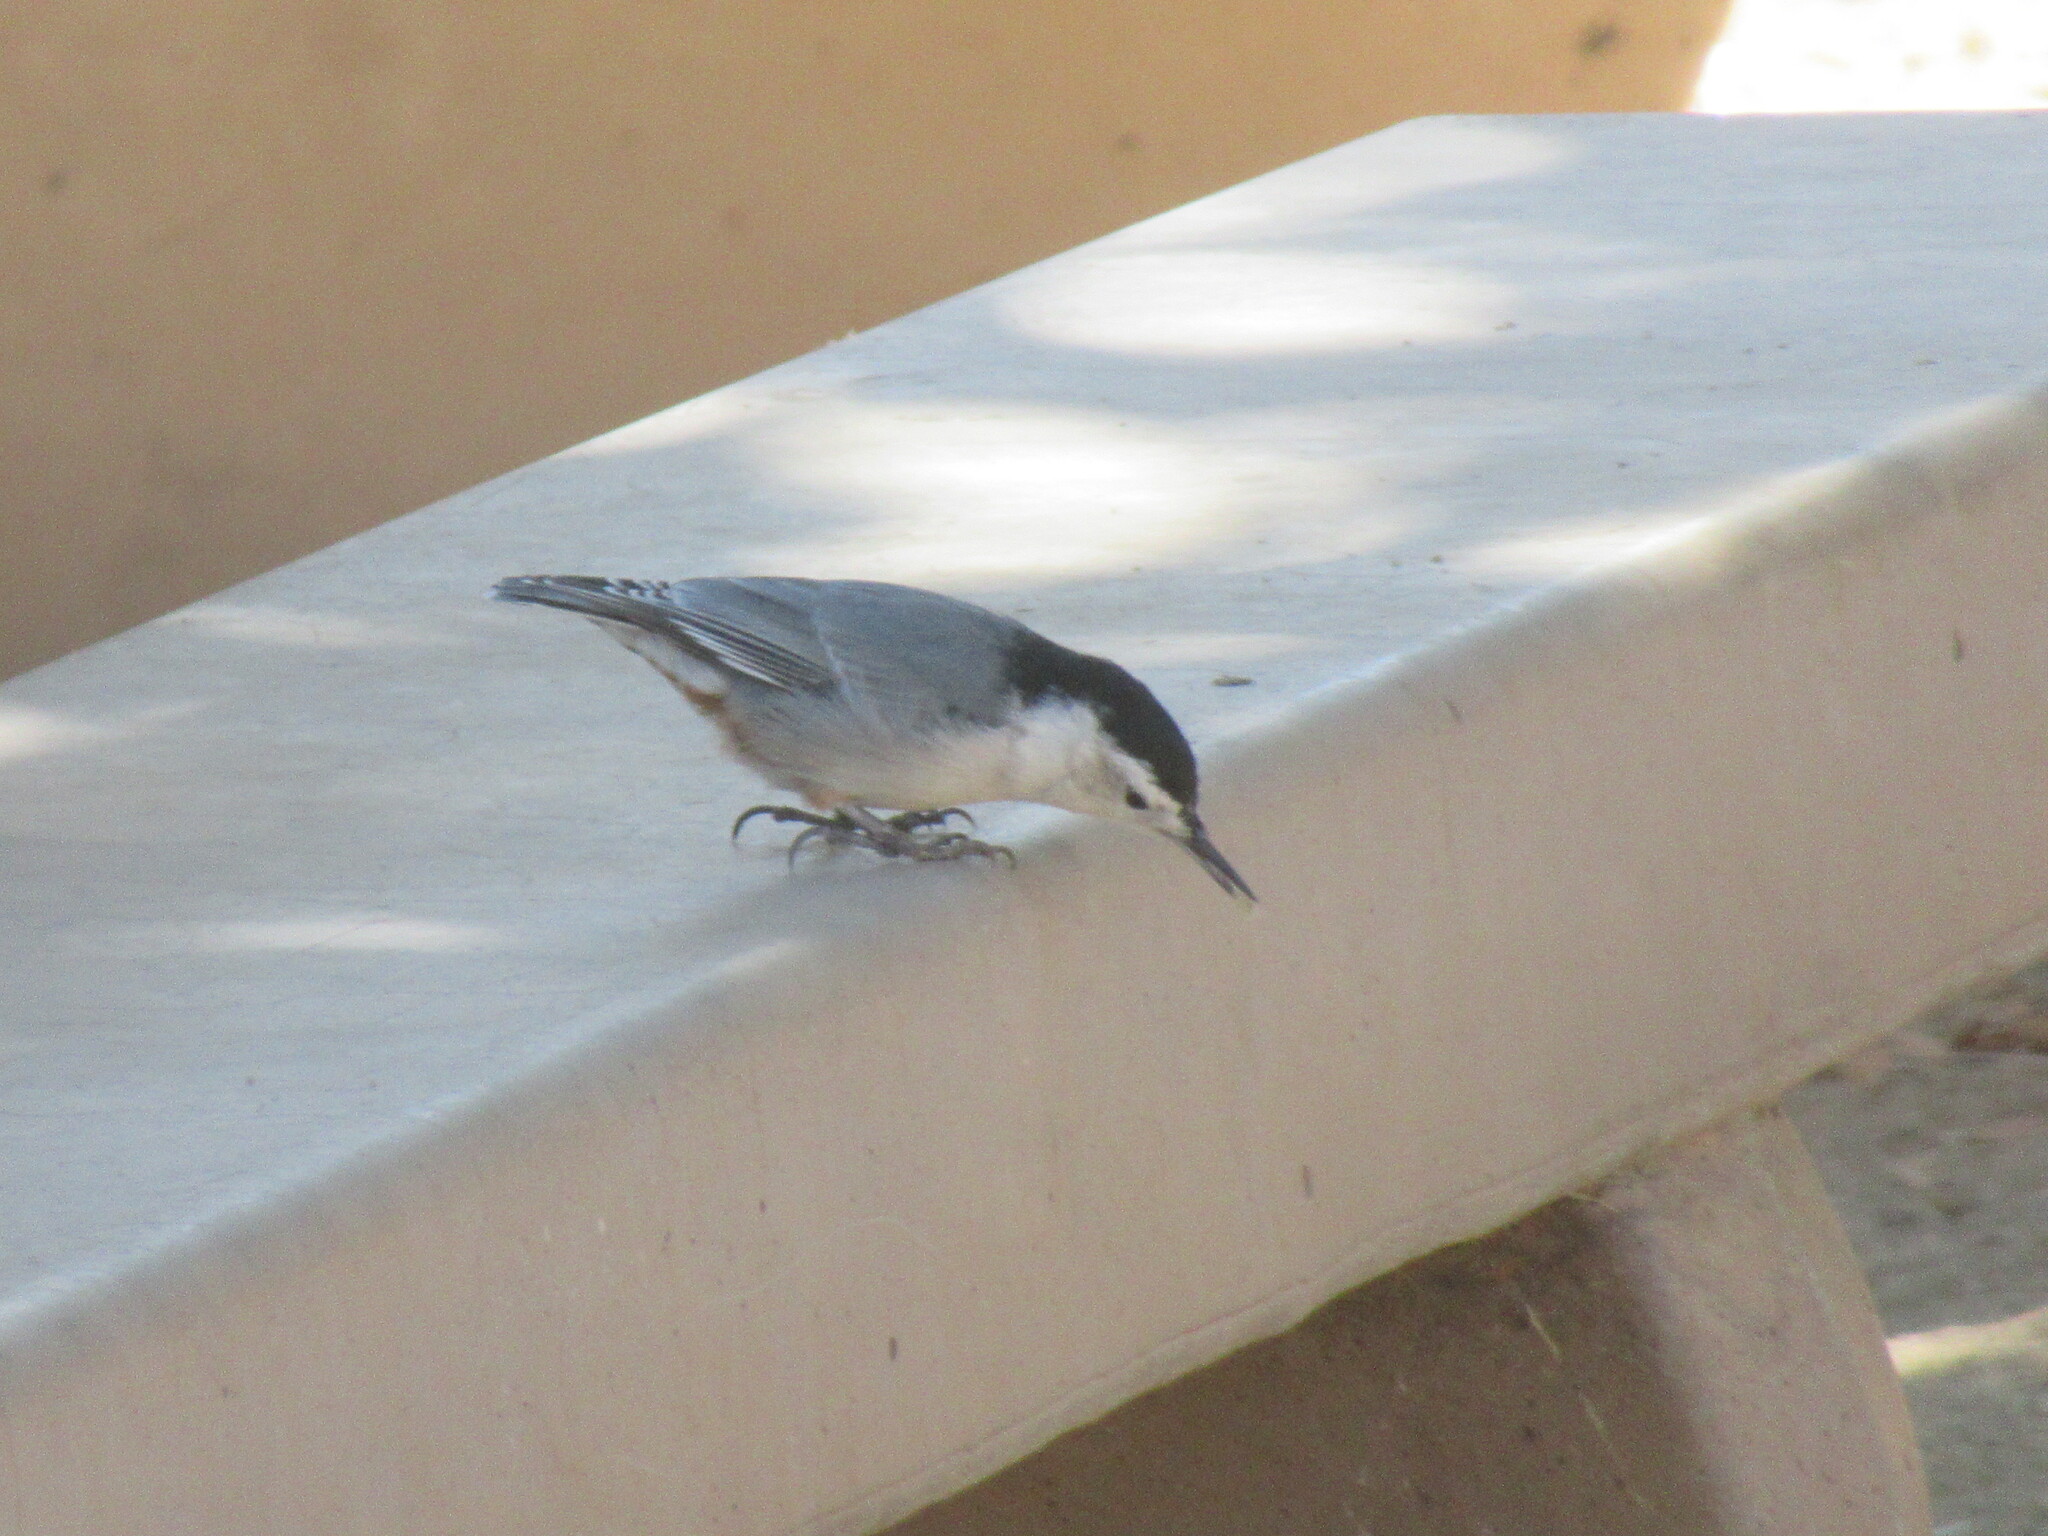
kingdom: Animalia
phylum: Chordata
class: Aves
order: Passeriformes
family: Sittidae
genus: Sitta
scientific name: Sitta carolinensis
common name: White-breasted nuthatch
